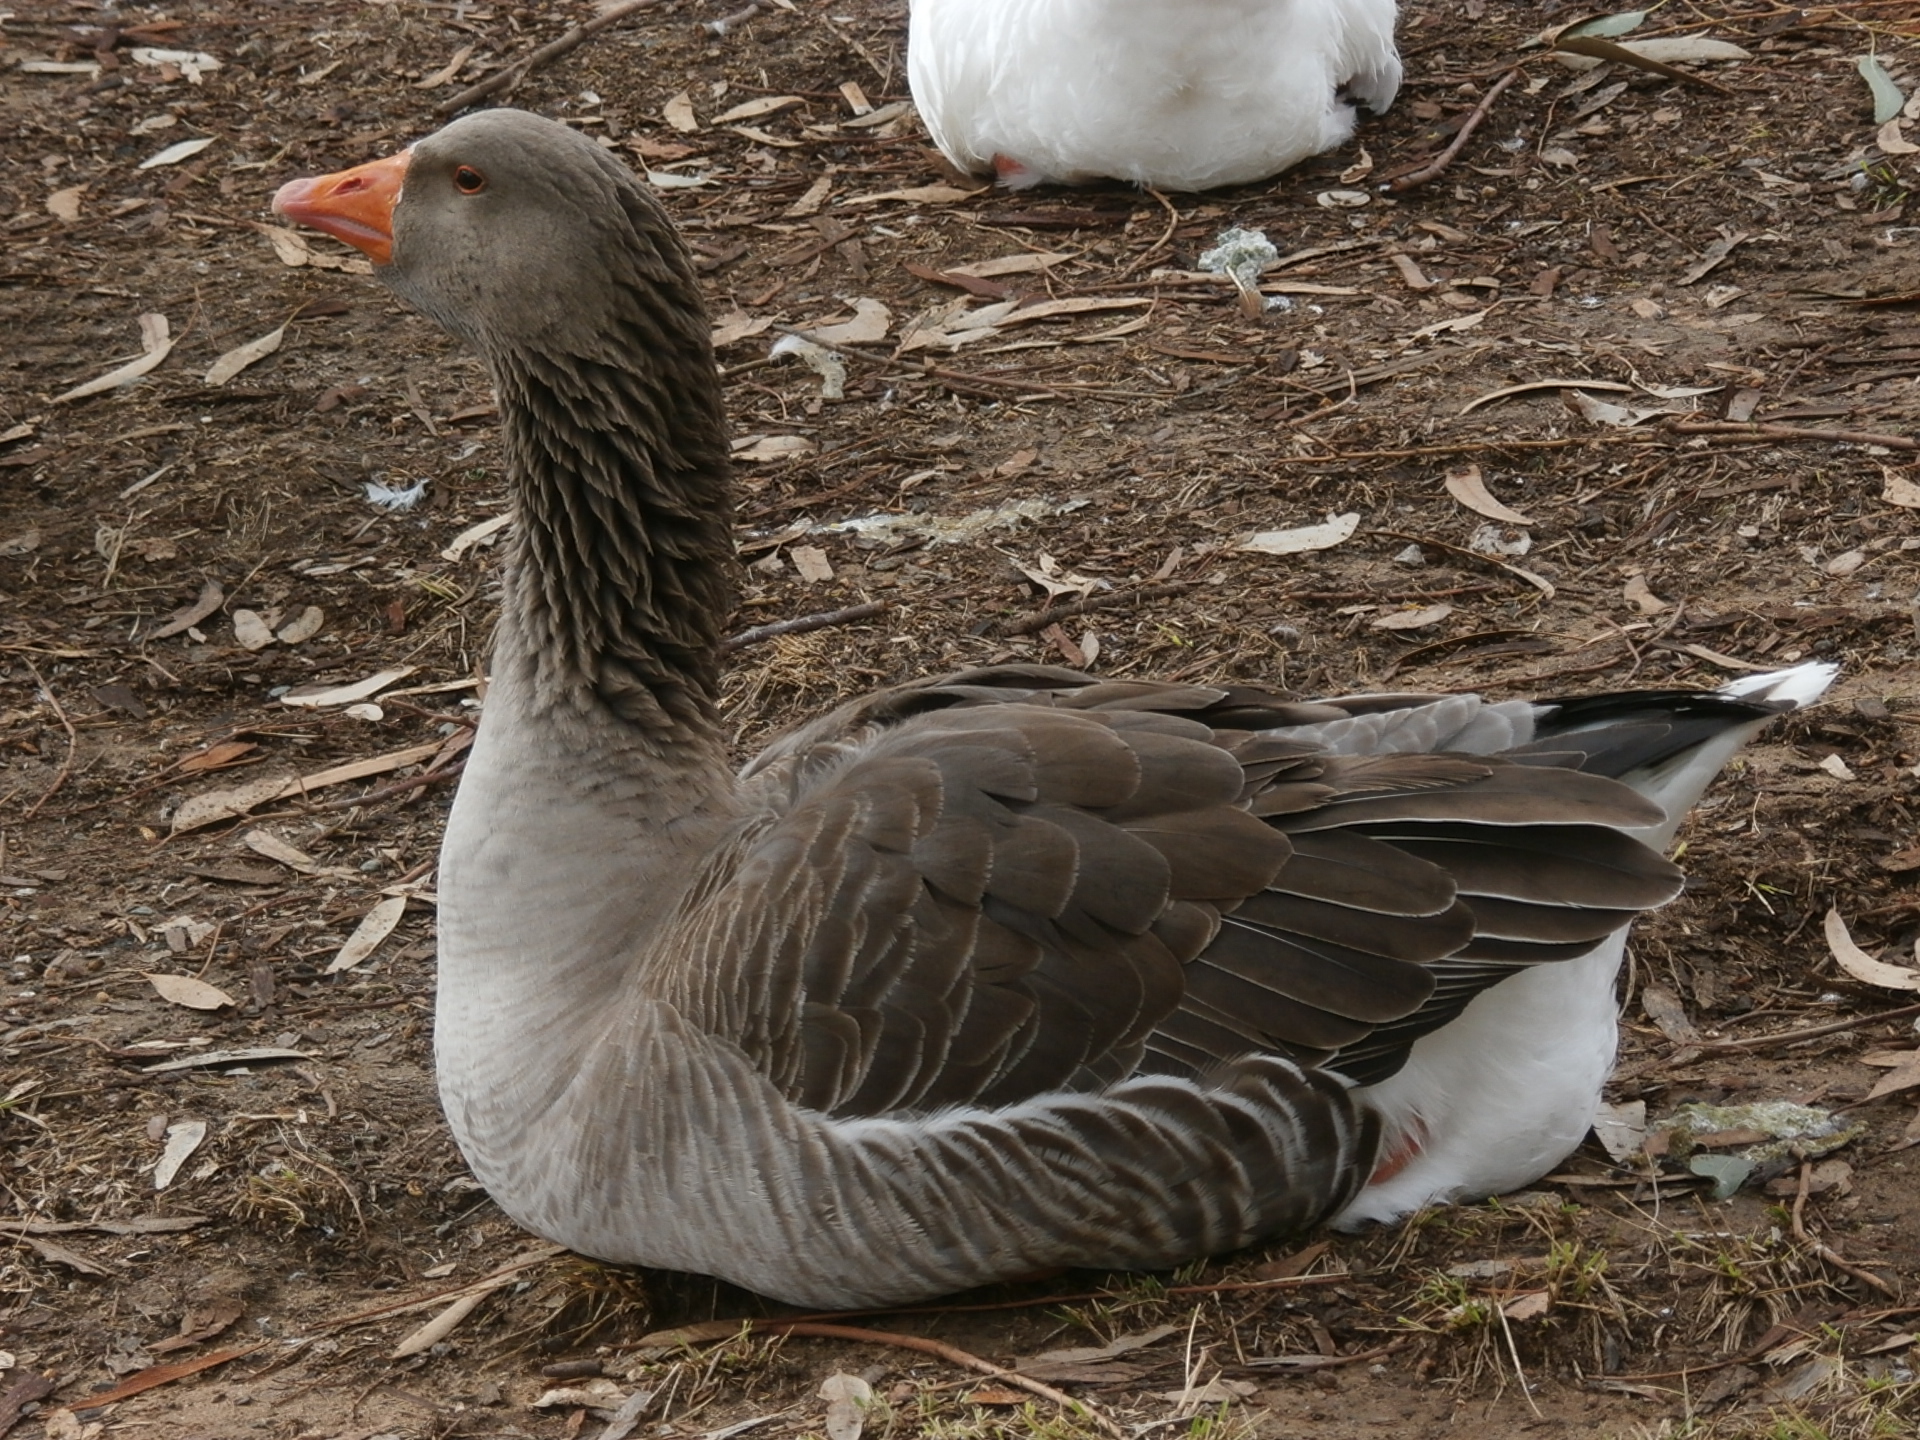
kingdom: Animalia
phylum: Chordata
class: Aves
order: Anseriformes
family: Anatidae
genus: Anser
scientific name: Anser anser
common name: Greylag goose
